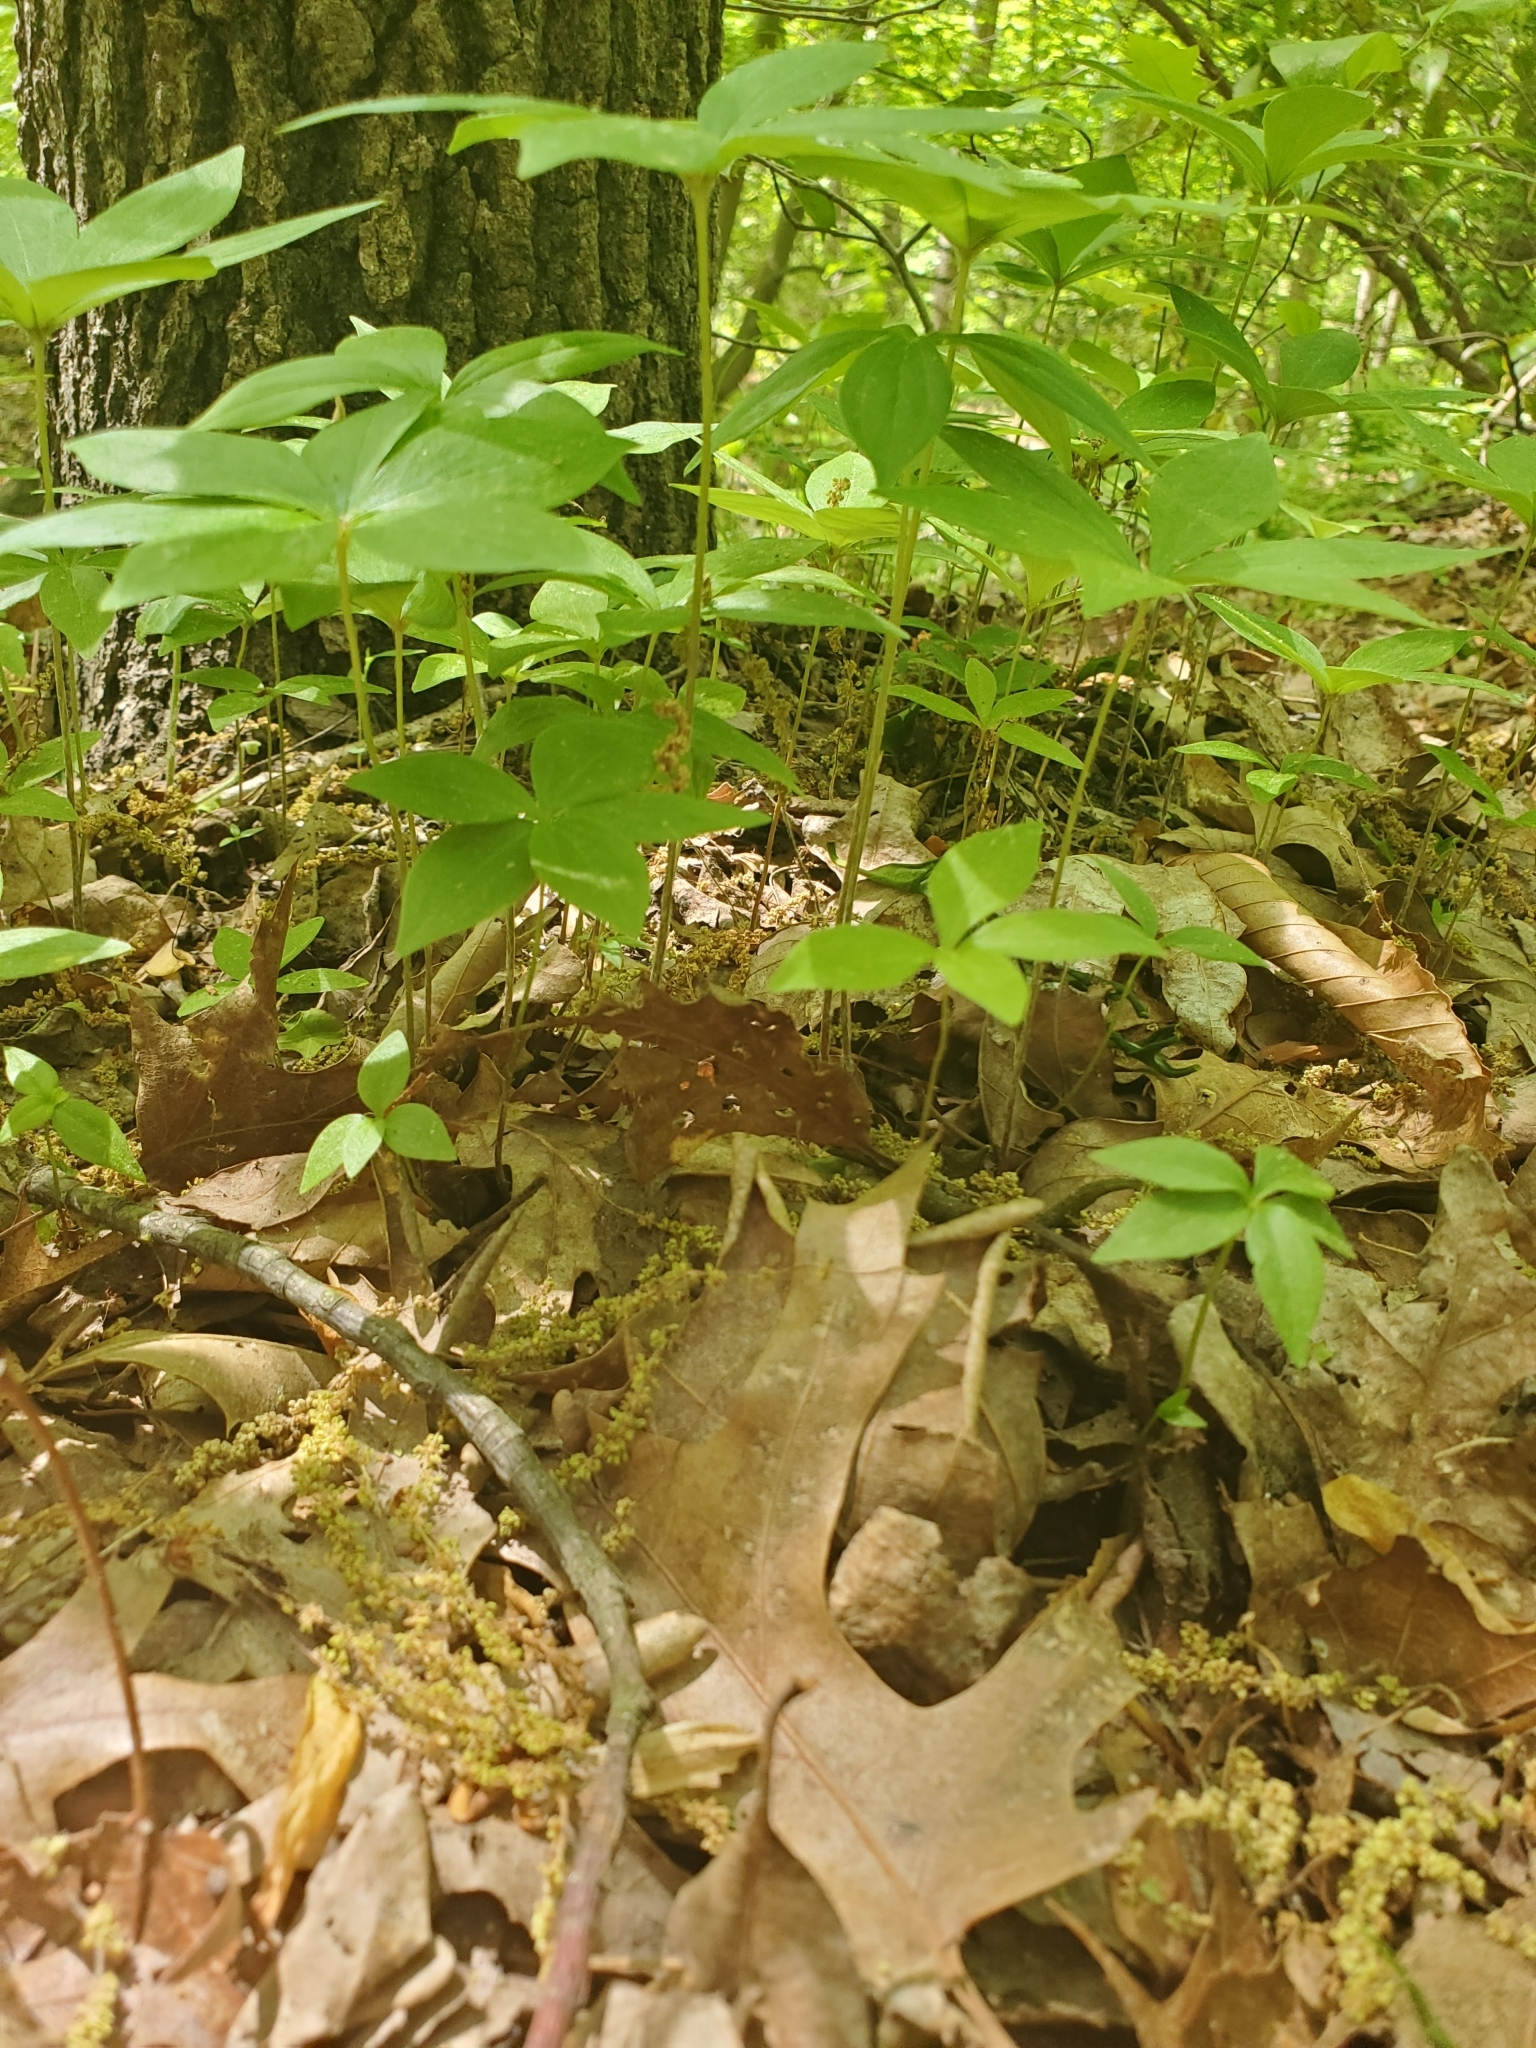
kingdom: Plantae
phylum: Tracheophyta
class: Liliopsida
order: Liliales
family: Liliaceae
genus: Medeola
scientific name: Medeola virginiana
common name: Indian cucumber-root
